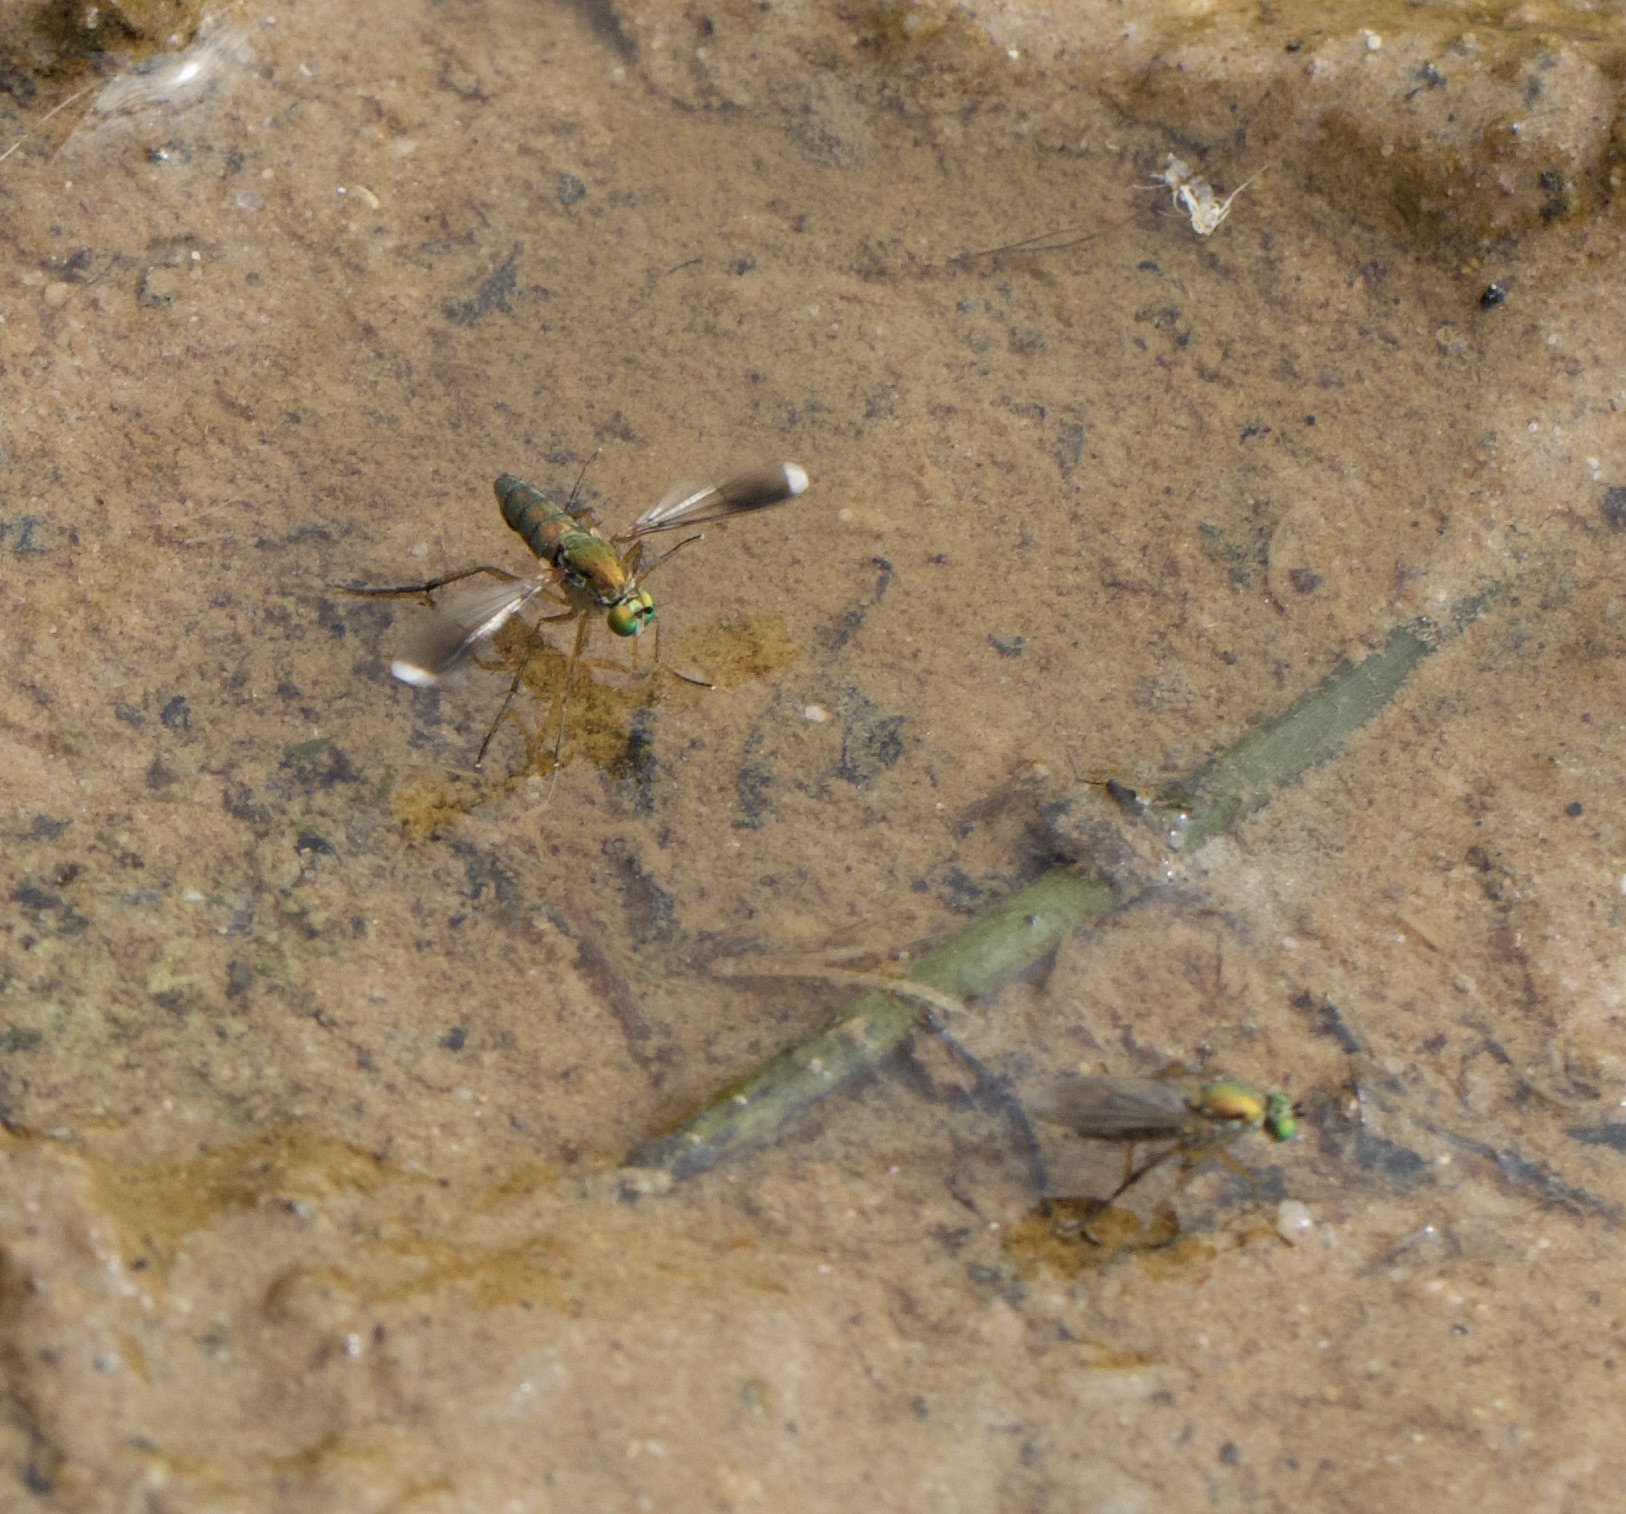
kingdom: Animalia
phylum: Arthropoda
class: Insecta
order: Diptera
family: Dolichopodidae
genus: Poecilobothrus
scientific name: Poecilobothrus nobilitatus
